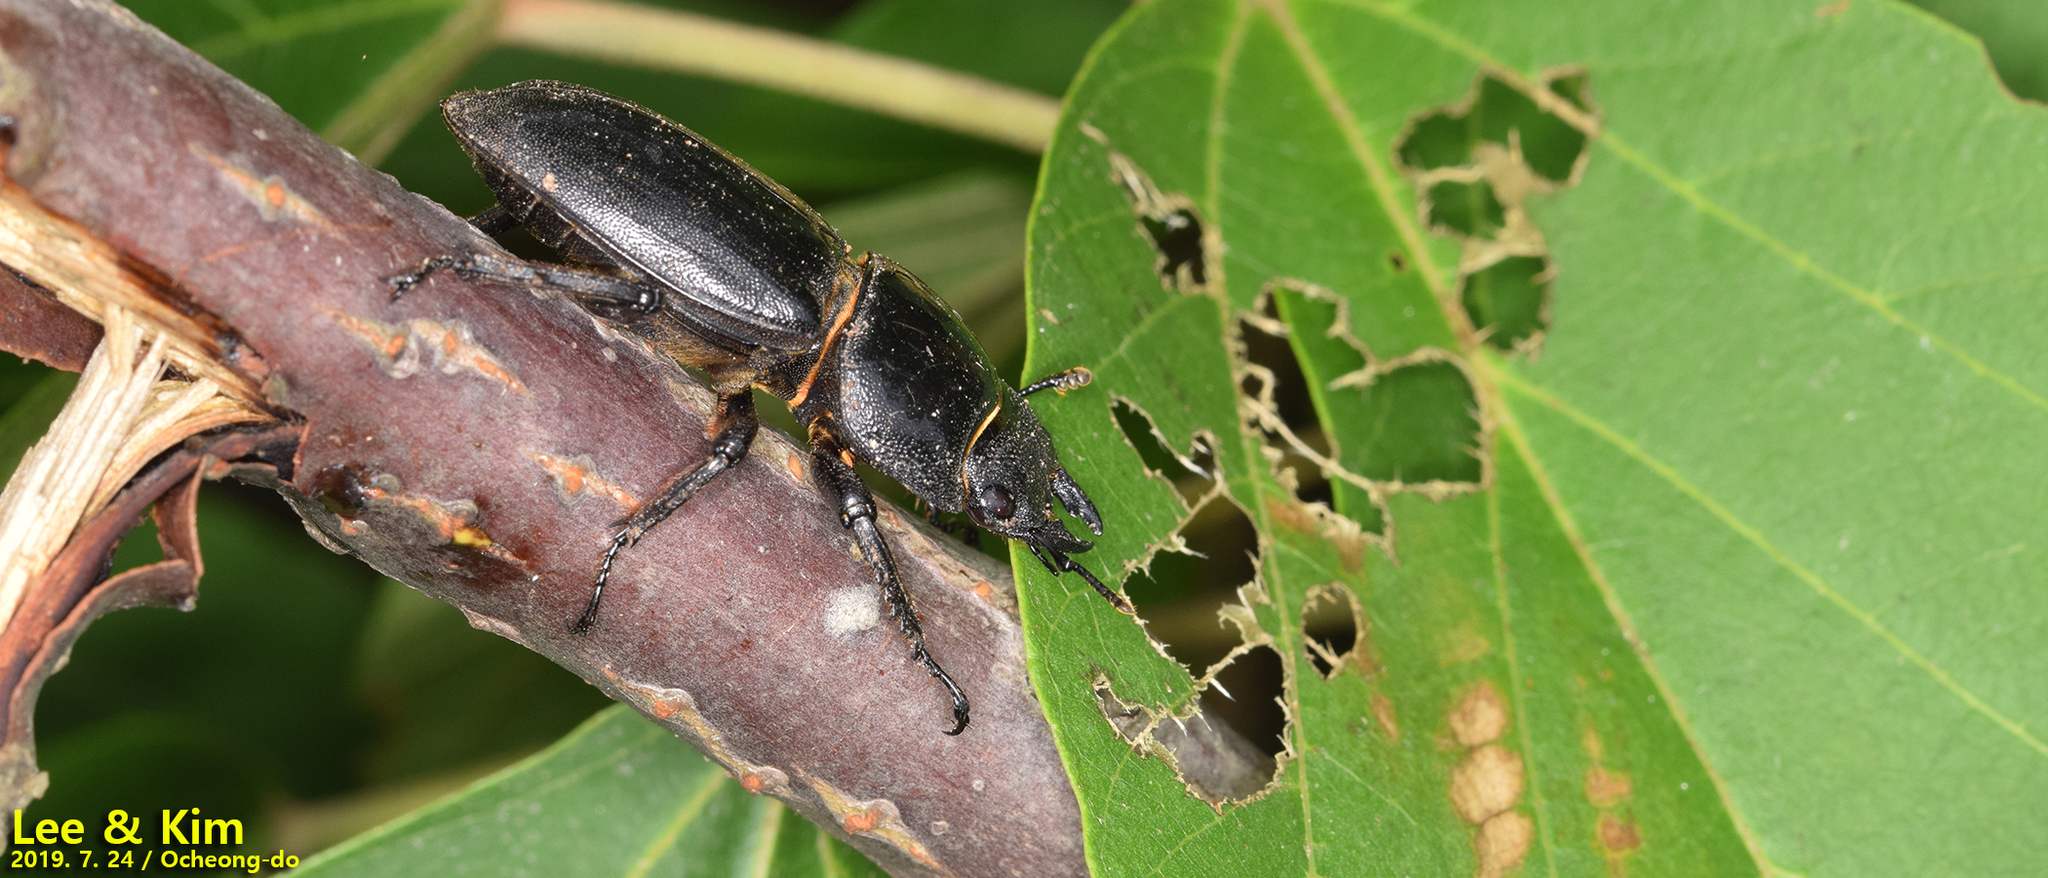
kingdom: Animalia
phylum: Arthropoda
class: Insecta
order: Coleoptera
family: Lucanidae
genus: Serrognathus
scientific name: Serrognathus titanus
